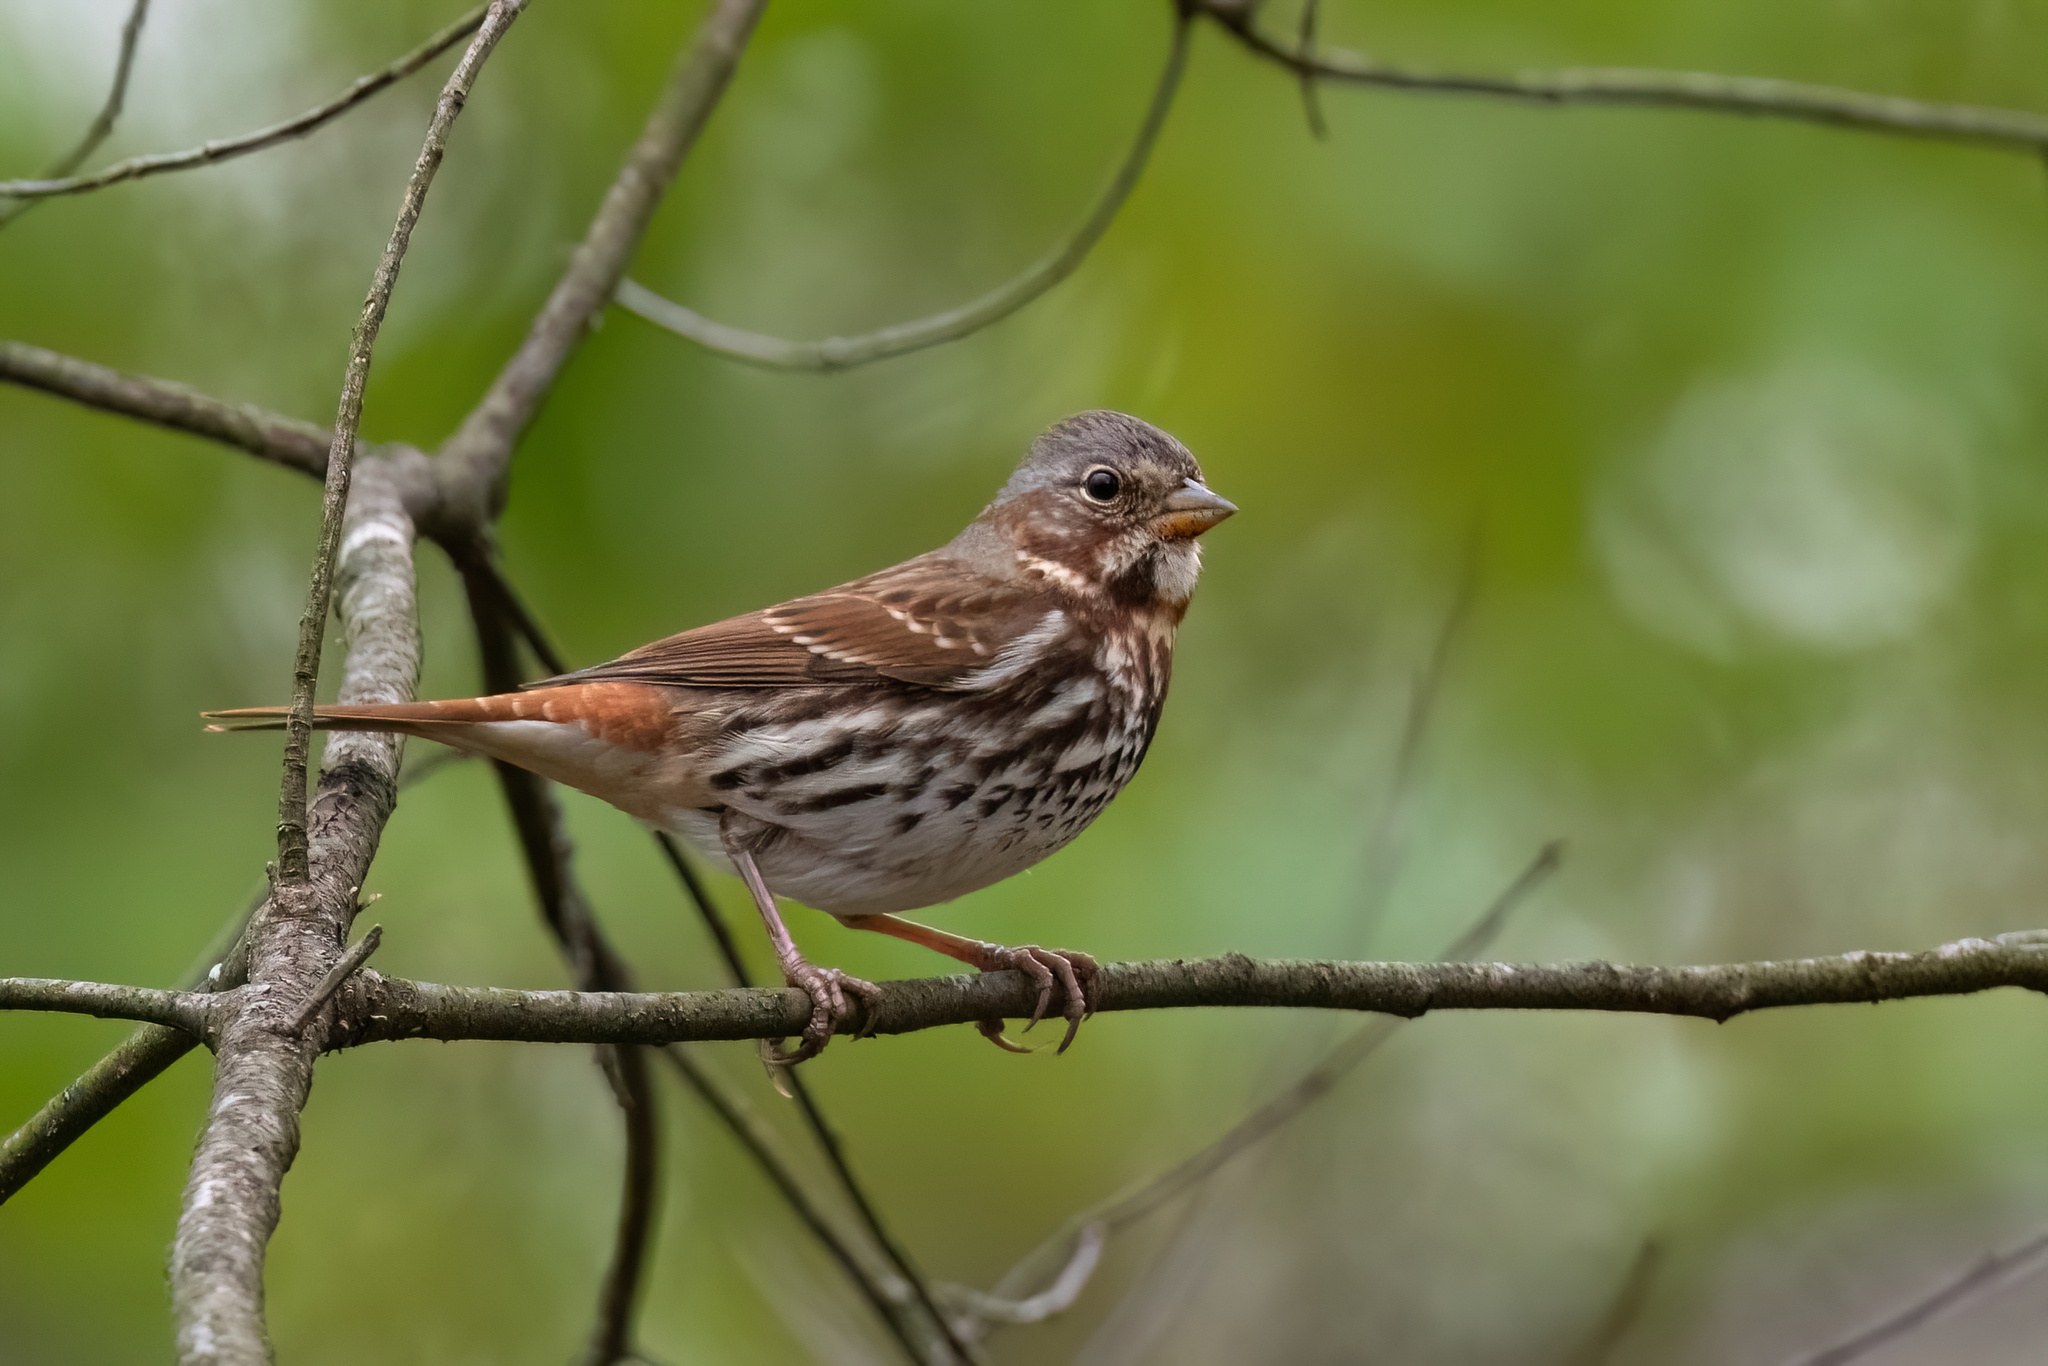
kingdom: Animalia
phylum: Chordata
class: Aves
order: Passeriformes
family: Passerellidae
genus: Passerella
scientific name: Passerella iliaca
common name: Fox sparrow
